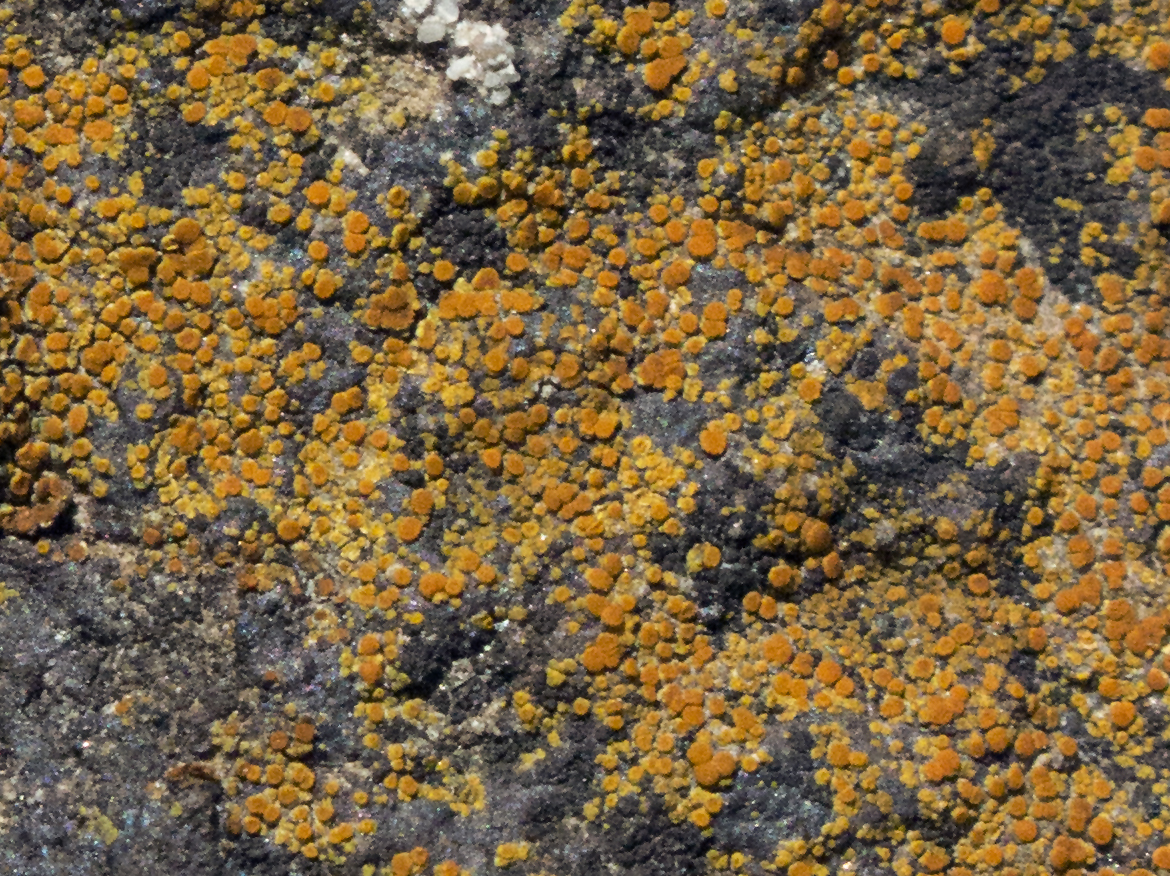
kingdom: Fungi
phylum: Ascomycota
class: Lecanoromycetes
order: Teloschistales
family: Teloschistaceae
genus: Gyalolechia
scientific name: Gyalolechia flavovirescens
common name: Sulphur firedot
